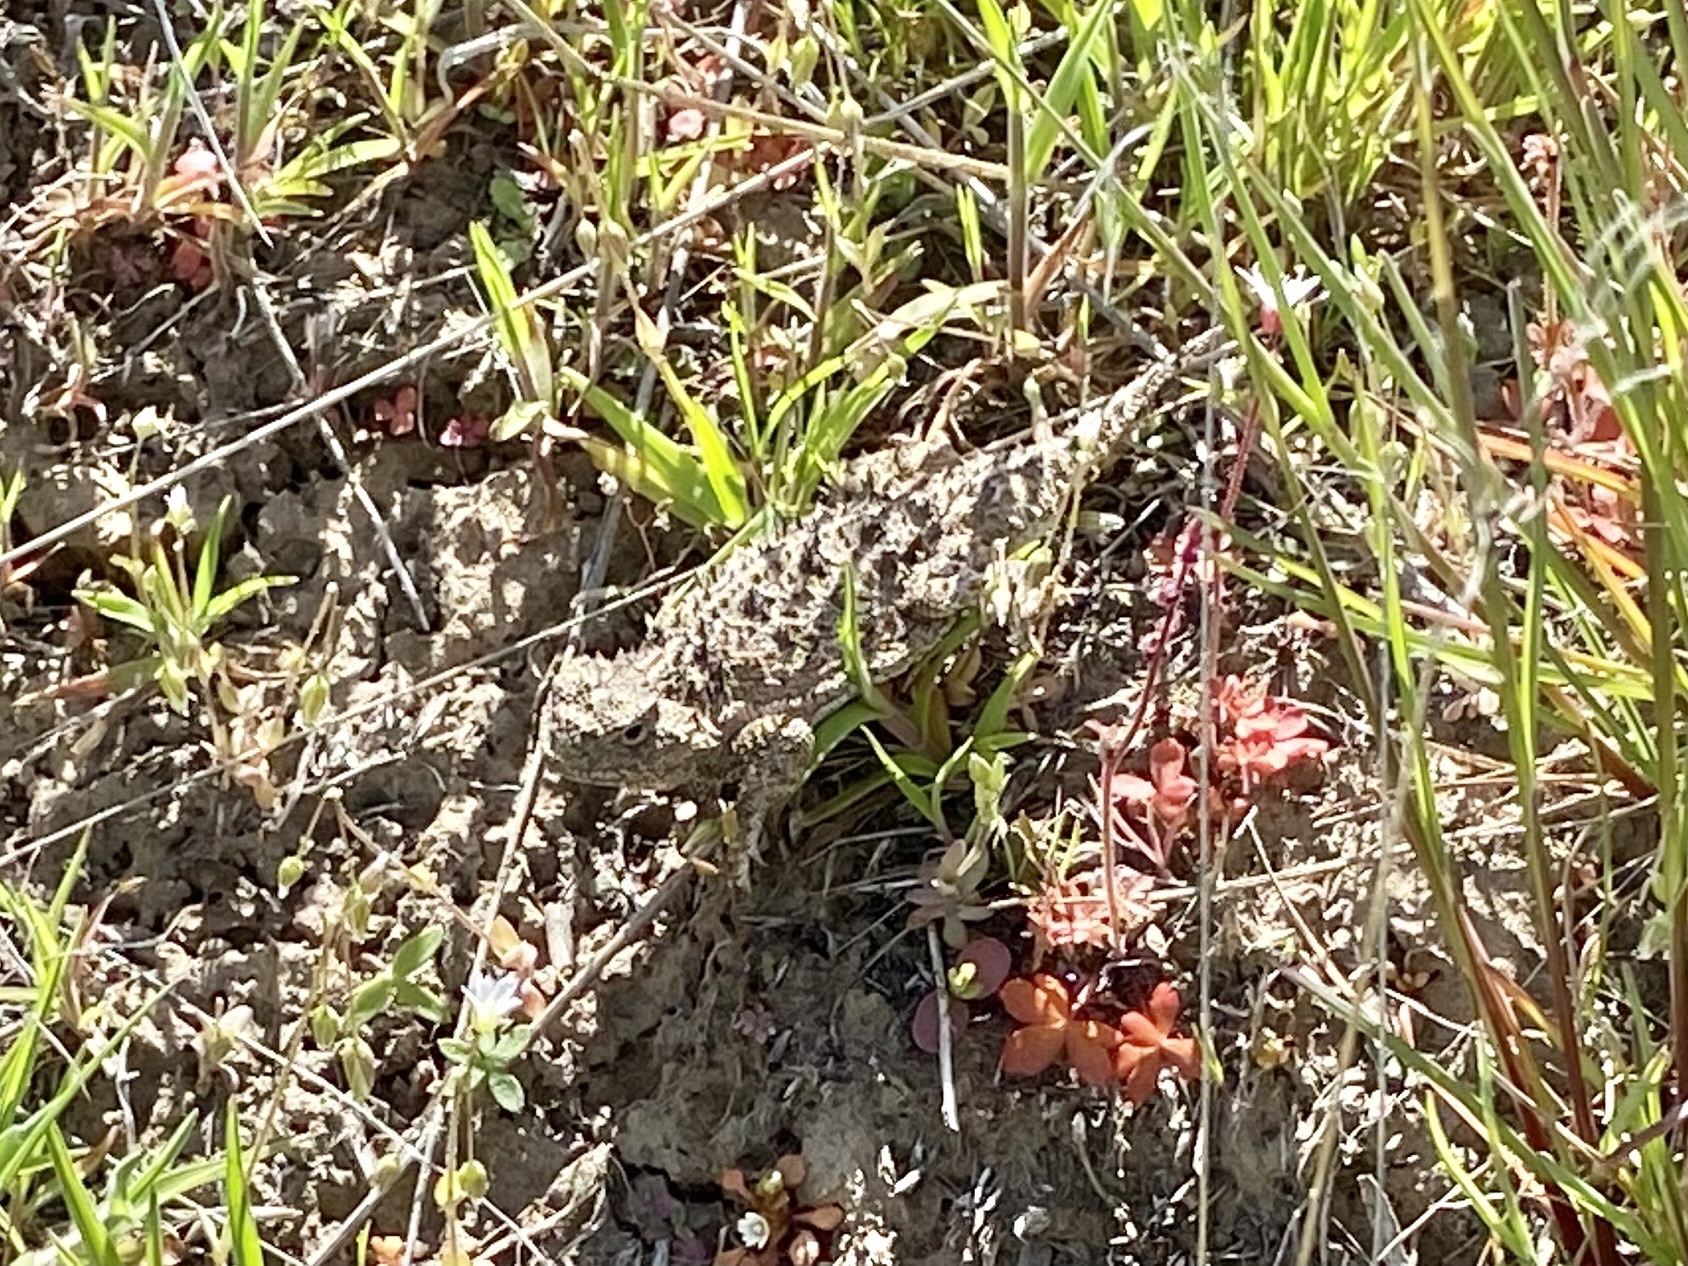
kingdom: Animalia
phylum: Chordata
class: Squamata
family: Phrynosomatidae
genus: Phrynosoma
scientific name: Phrynosoma douglasii
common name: Short-horned lizard
